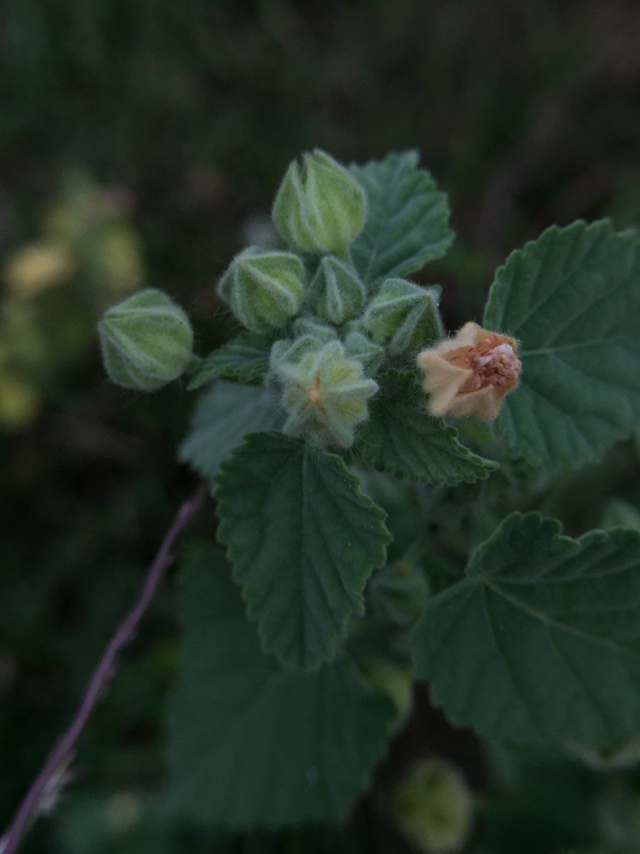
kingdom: Plantae
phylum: Tracheophyta
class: Magnoliopsida
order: Malvales
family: Malvaceae
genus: Sida
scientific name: Sida cordifolia
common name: Ilima
